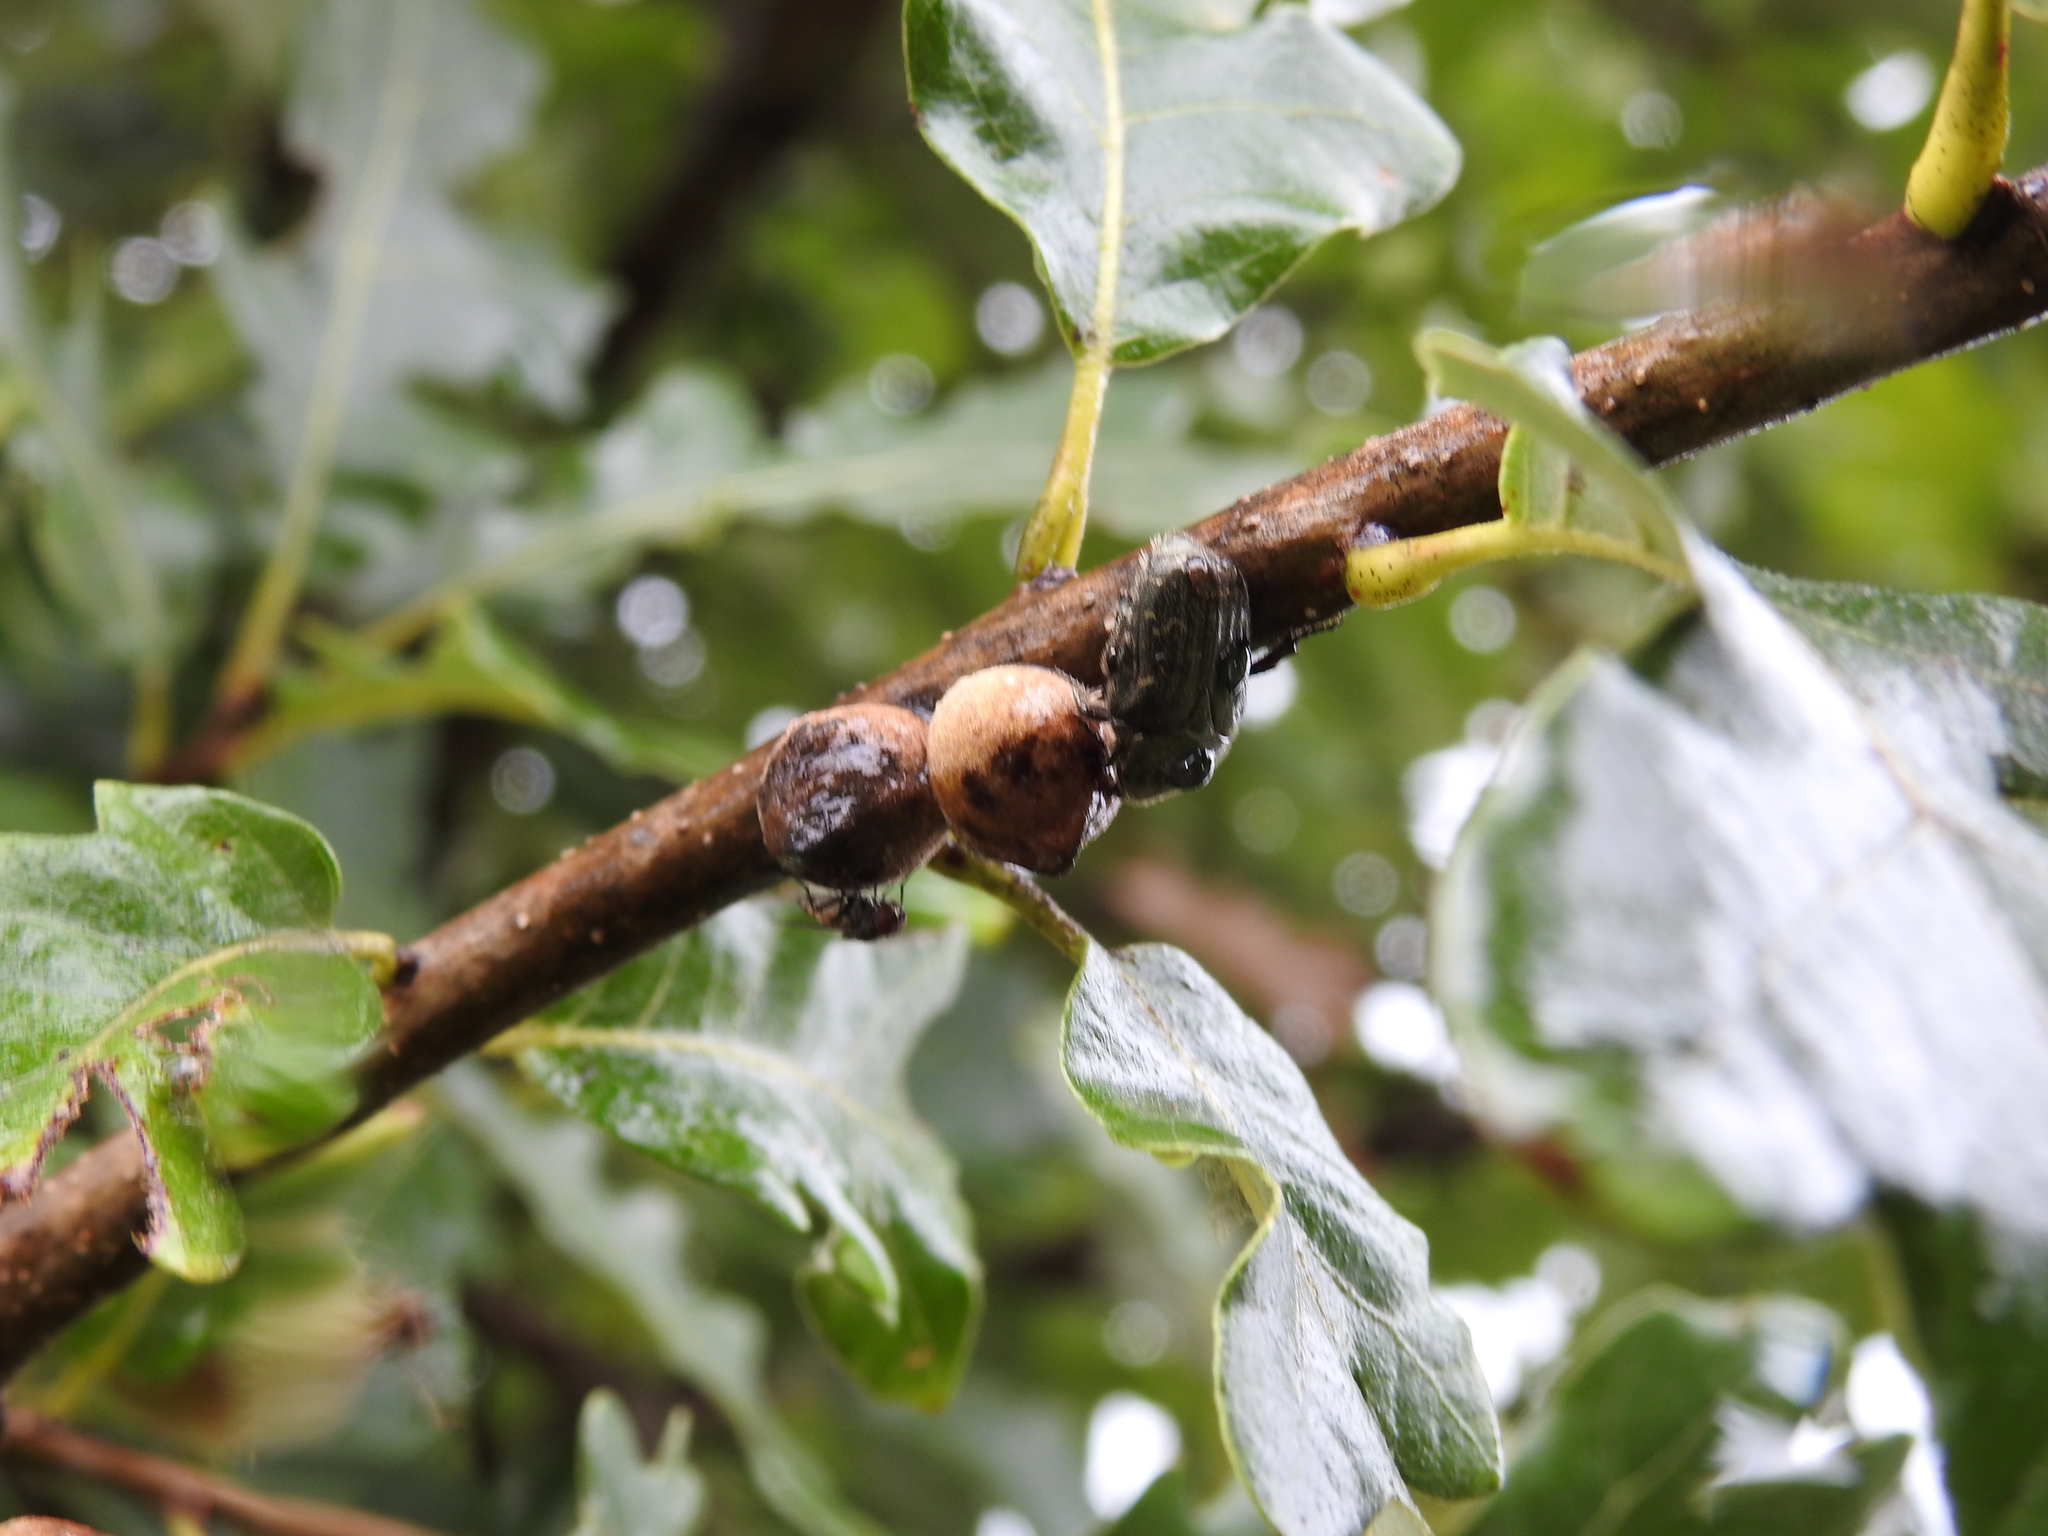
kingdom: Animalia
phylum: Arthropoda
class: Insecta
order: Coleoptera
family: Scarabaeidae
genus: Euphoria
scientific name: Euphoria sepulcralis
